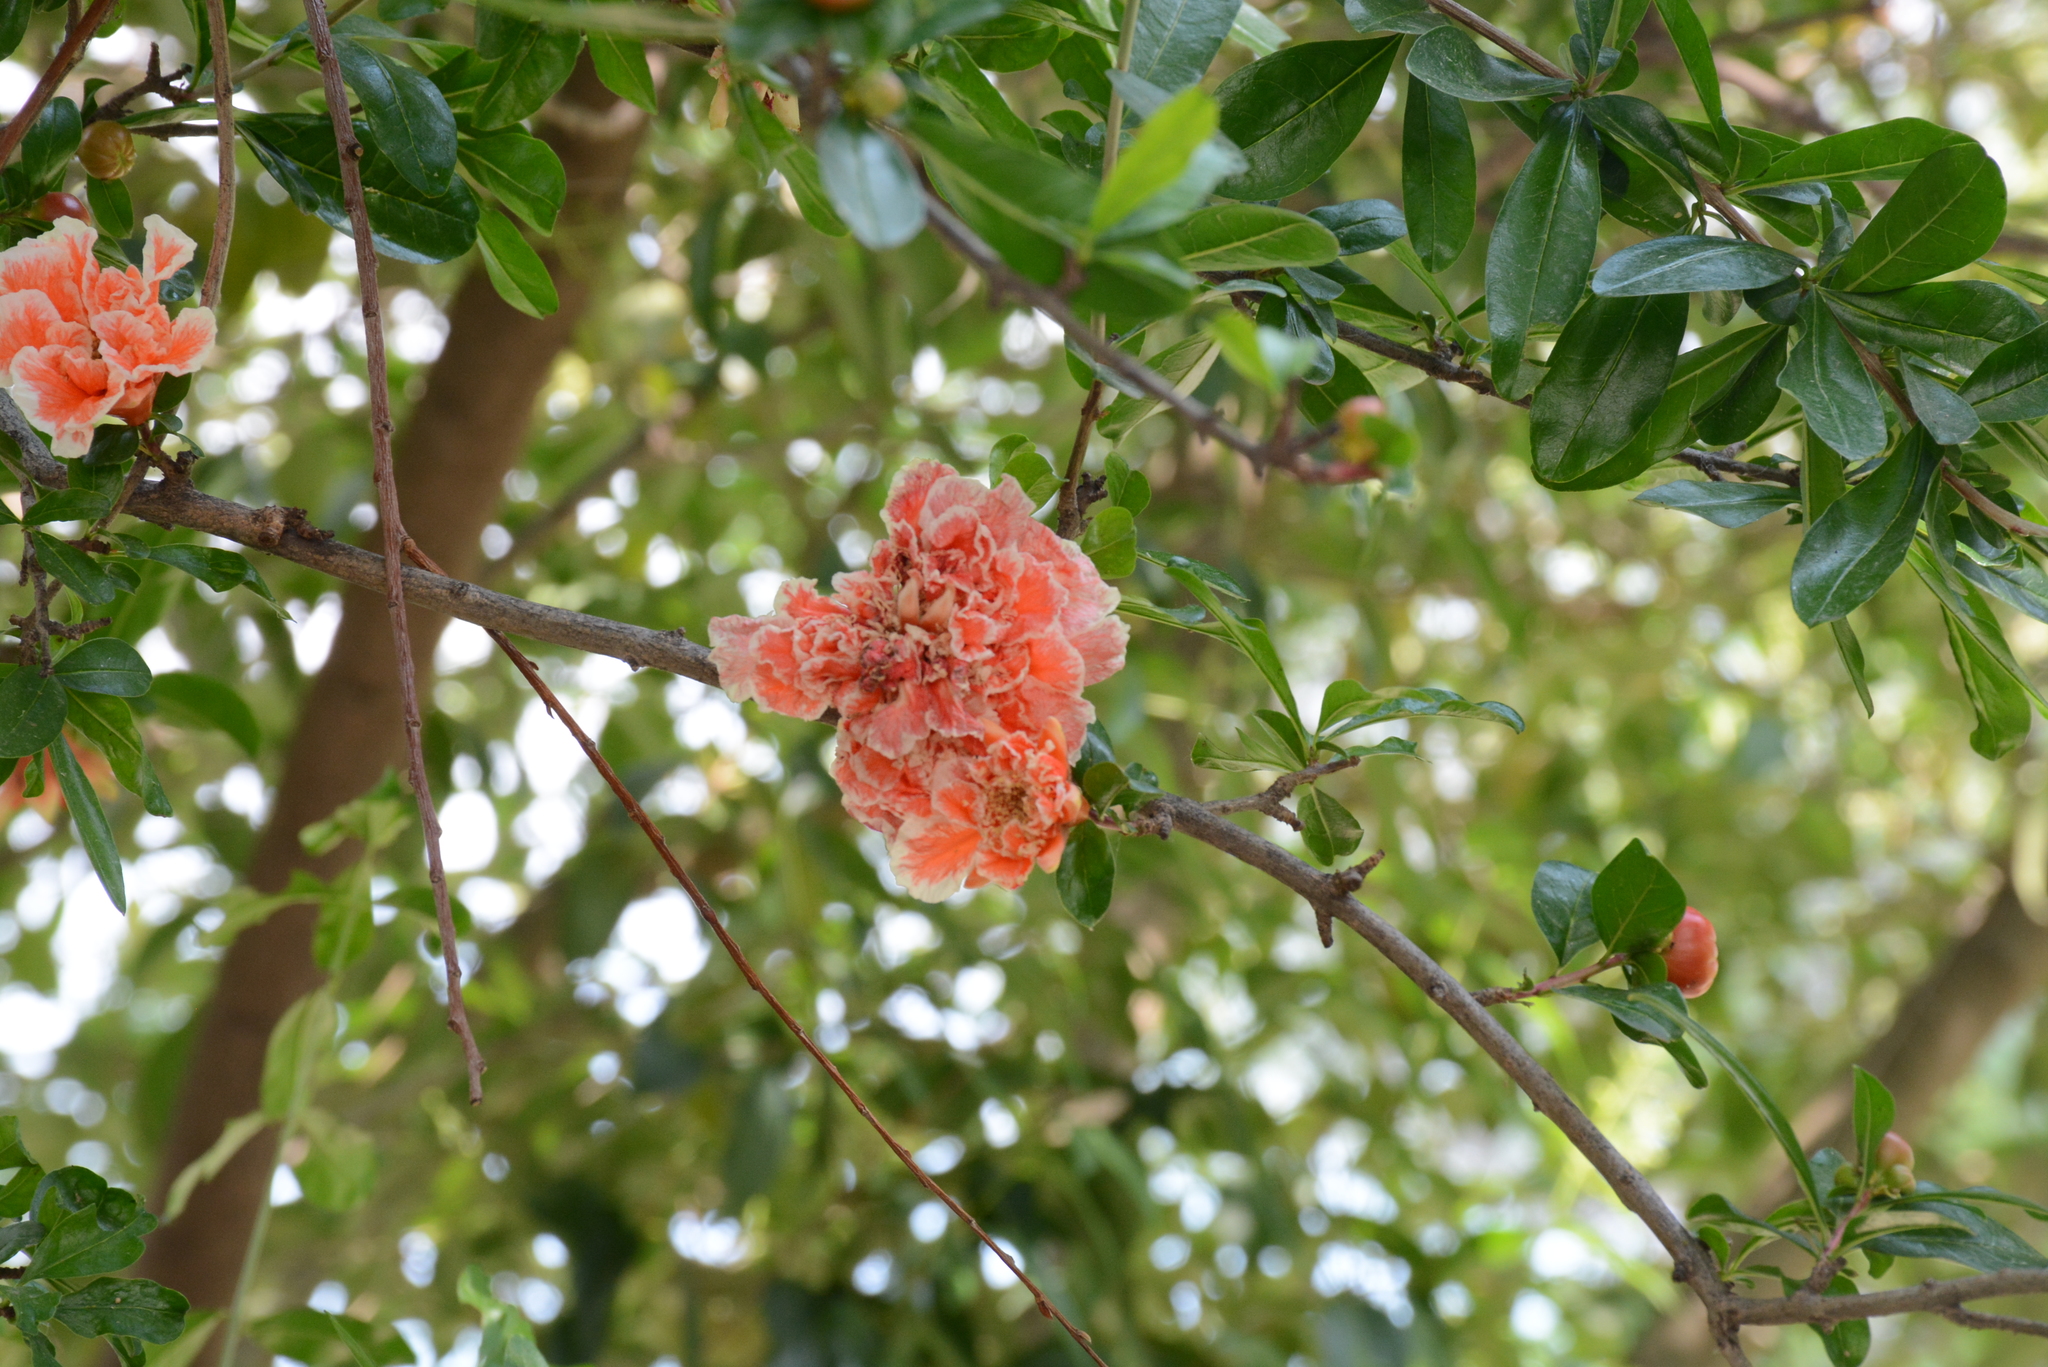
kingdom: Plantae
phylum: Tracheophyta
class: Magnoliopsida
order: Myrtales
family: Lythraceae
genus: Punica
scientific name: Punica granatum
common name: Pomegranate
